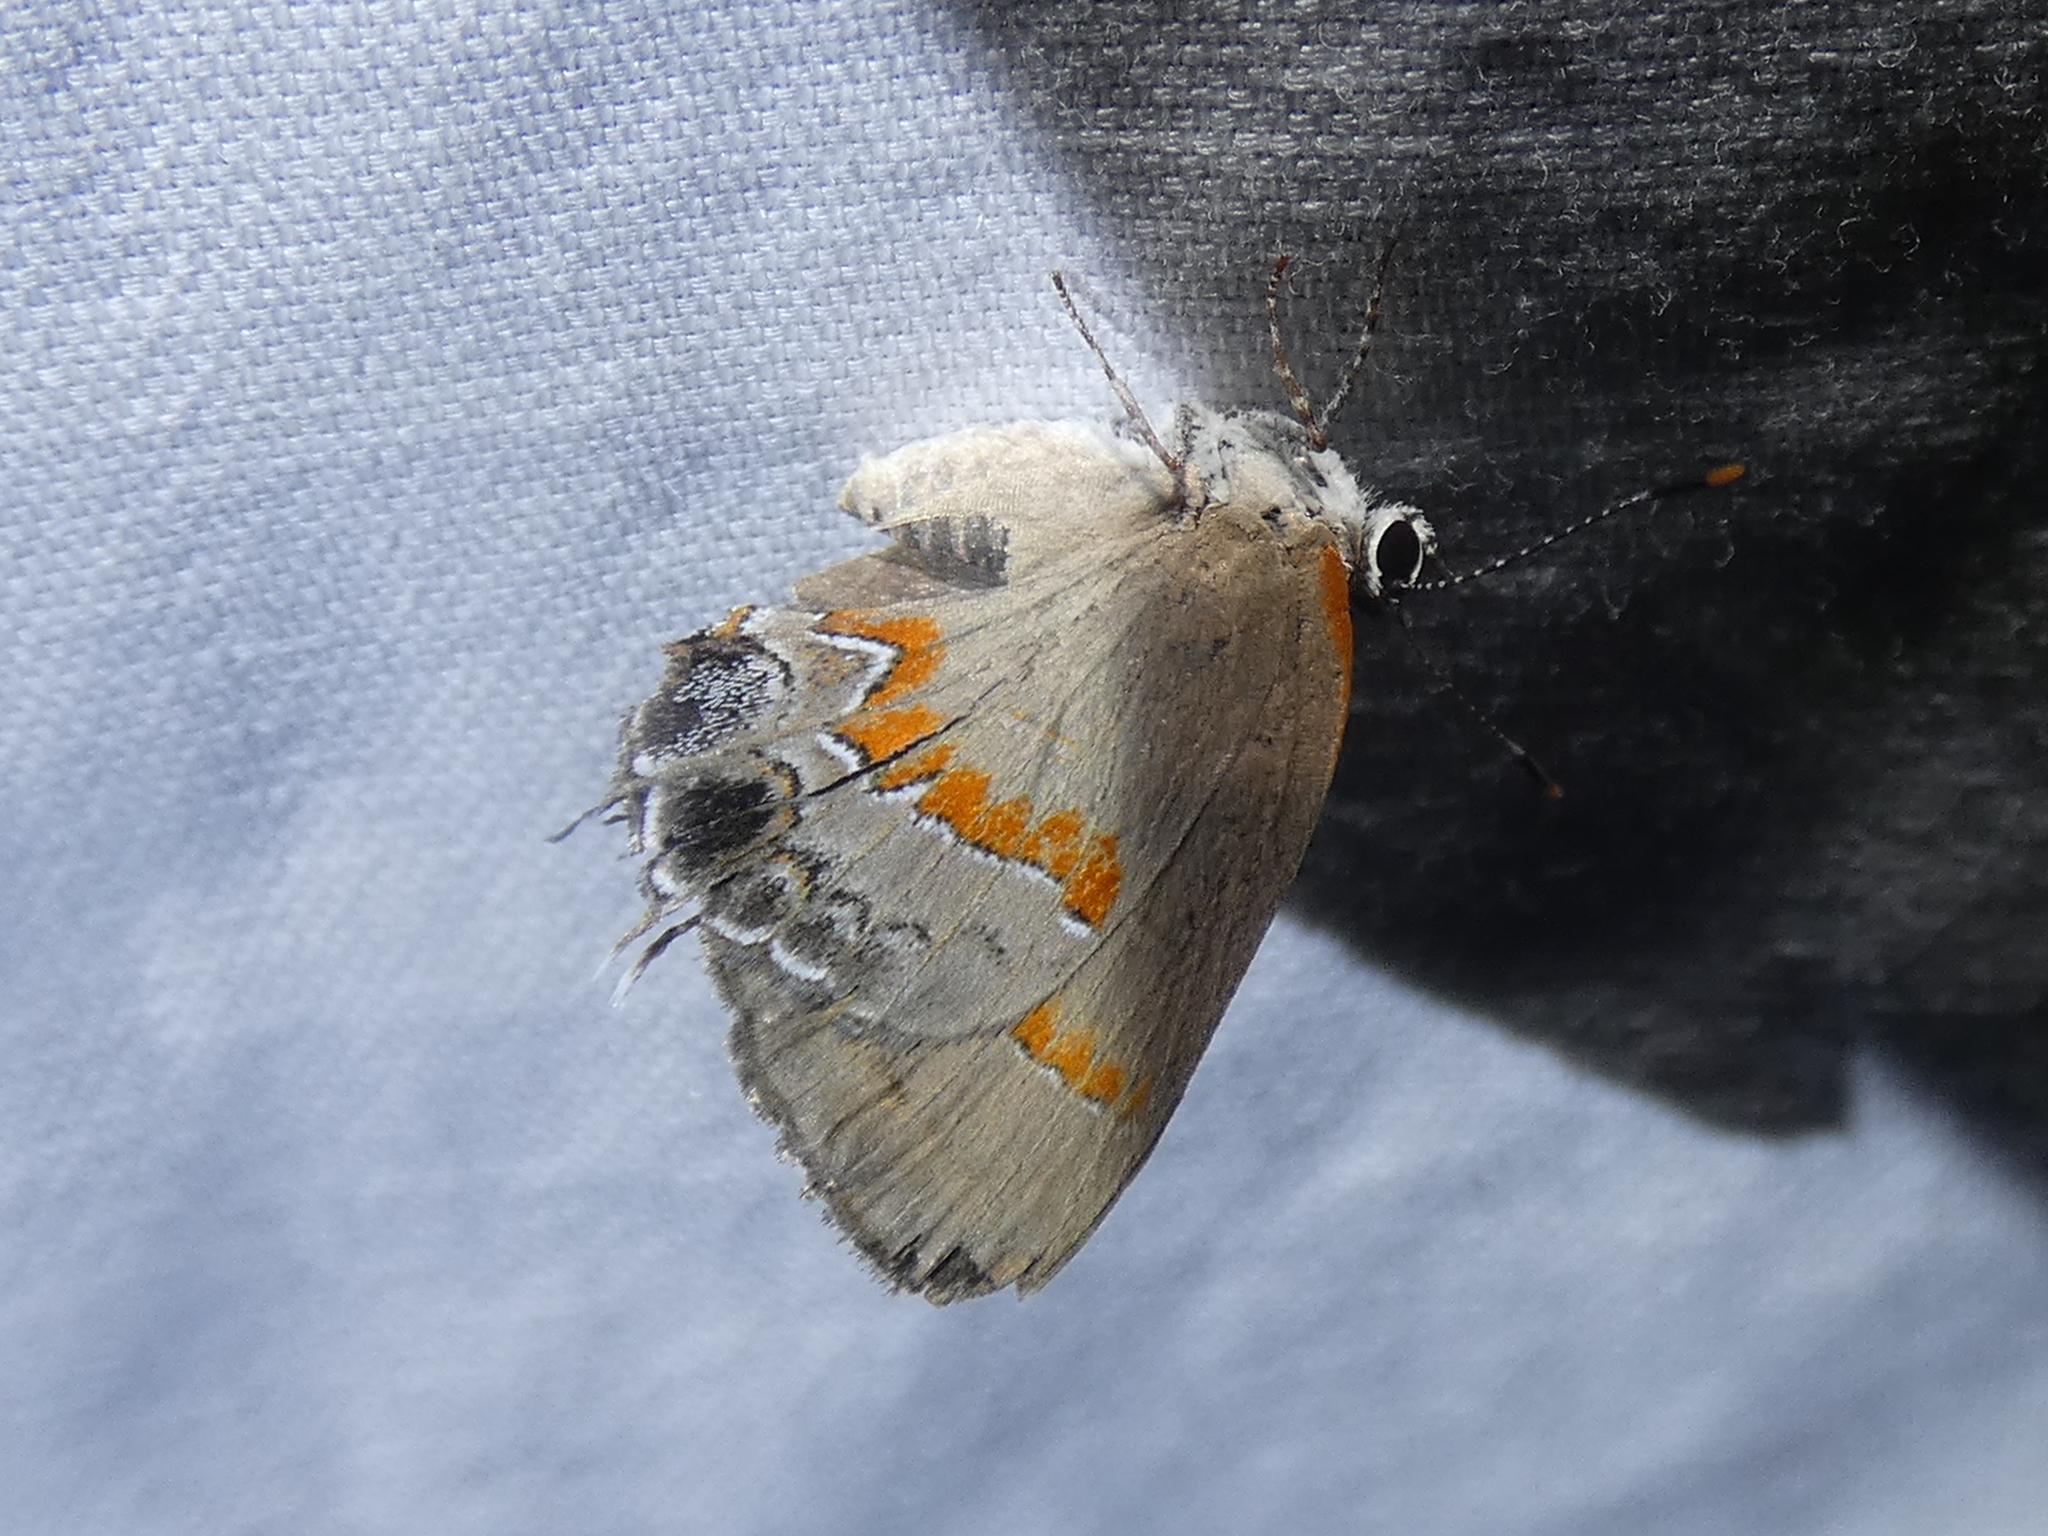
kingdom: Animalia
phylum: Arthropoda
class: Insecta
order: Lepidoptera
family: Lycaenidae
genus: Calycopis
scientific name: Calycopis cecrops
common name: Red-banded hairstreak
